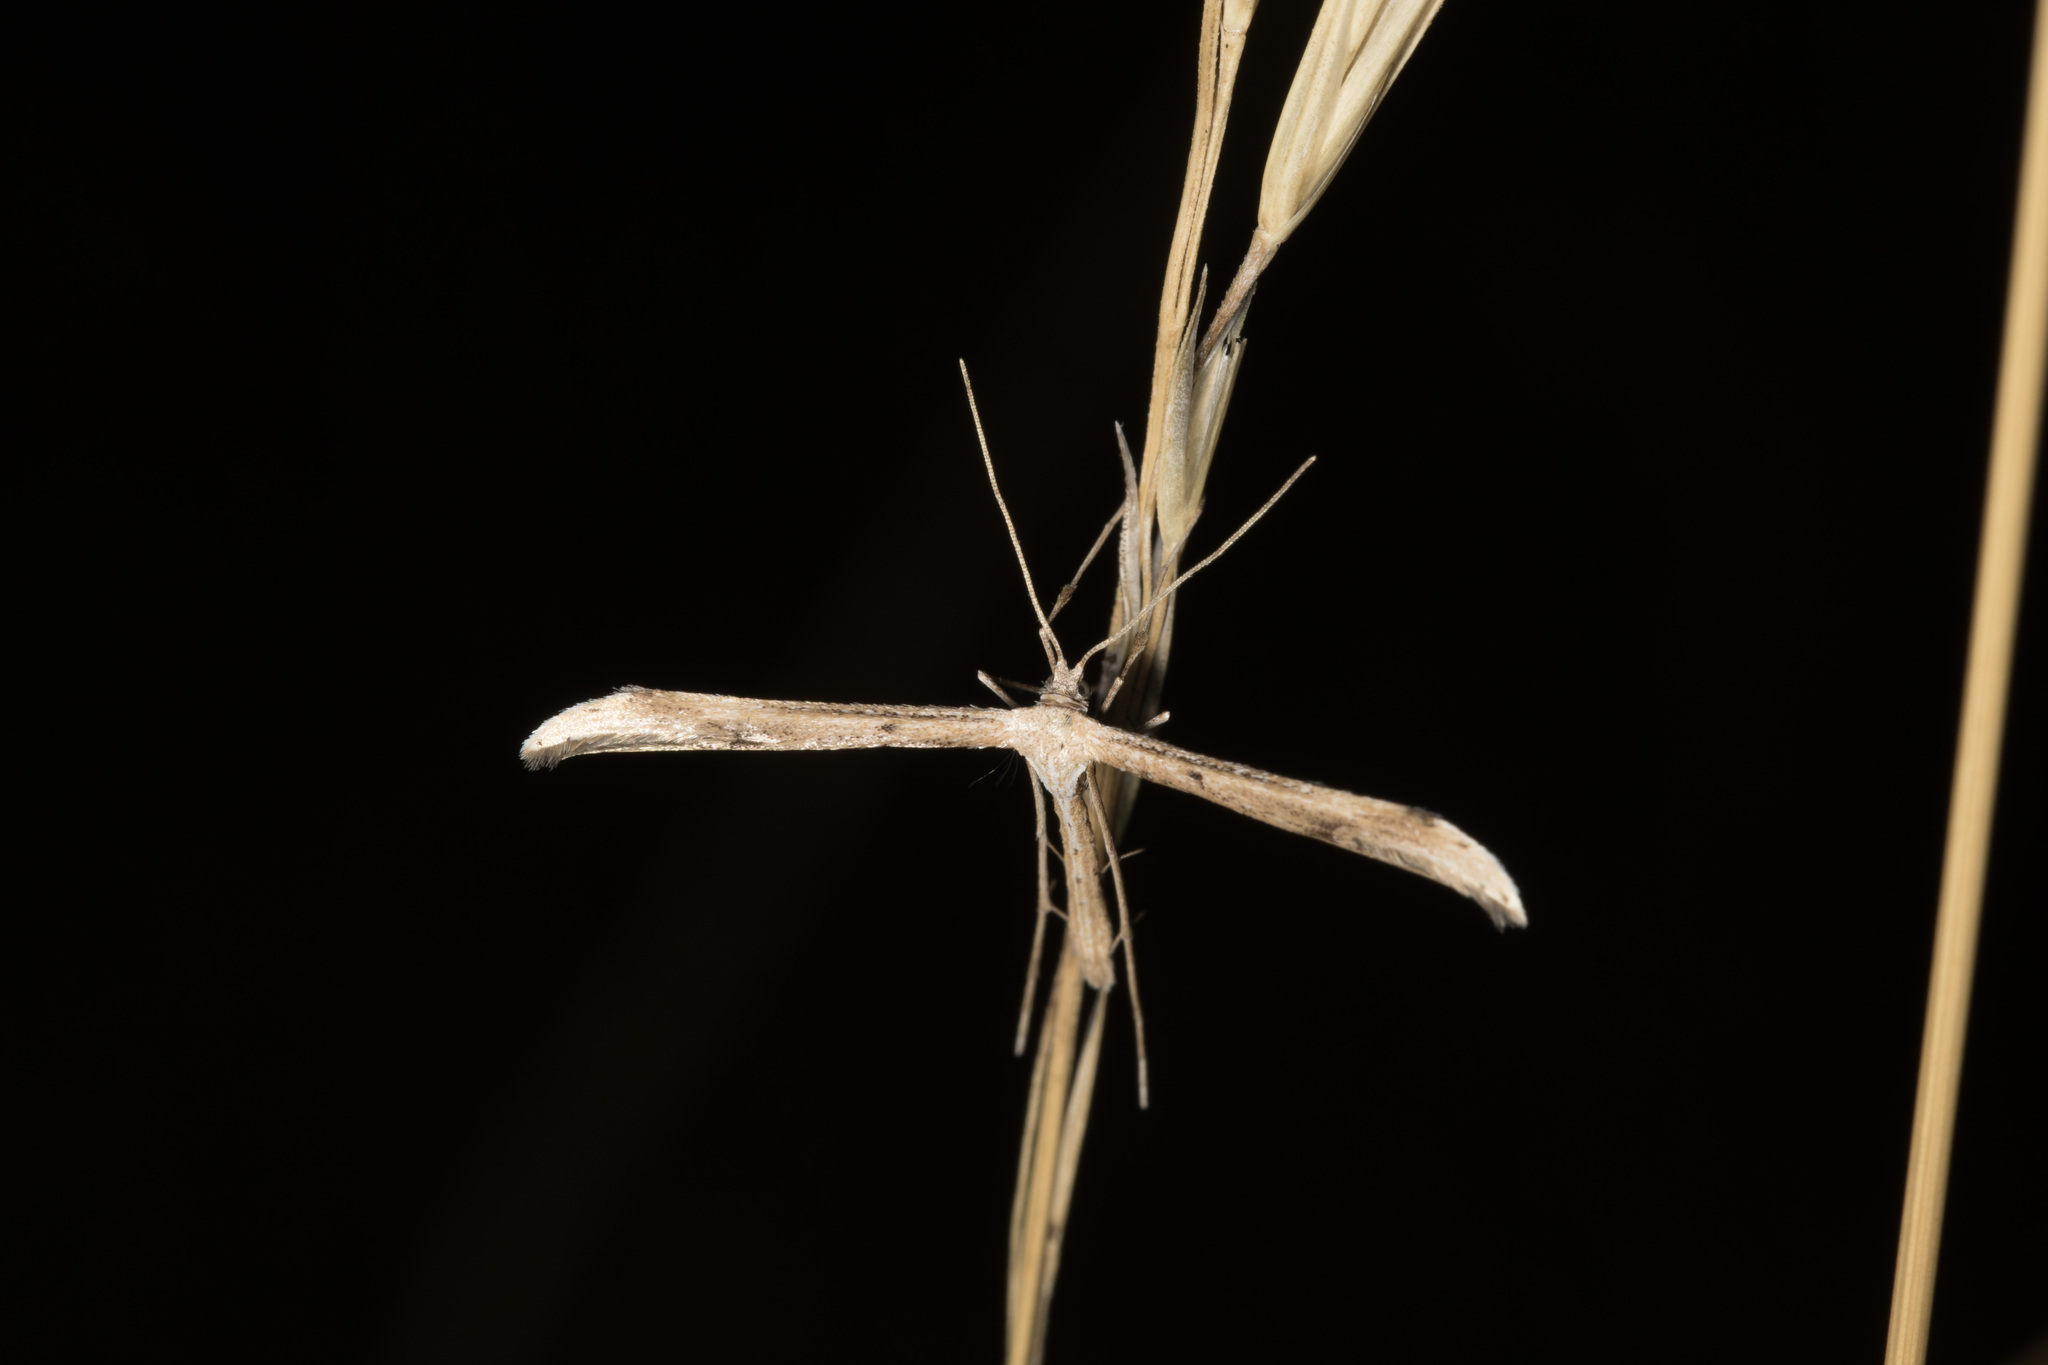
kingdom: Animalia
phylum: Arthropoda
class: Insecta
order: Lepidoptera
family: Pterophoridae
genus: Emmelina
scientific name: Emmelina monodactyla
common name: Common plume
